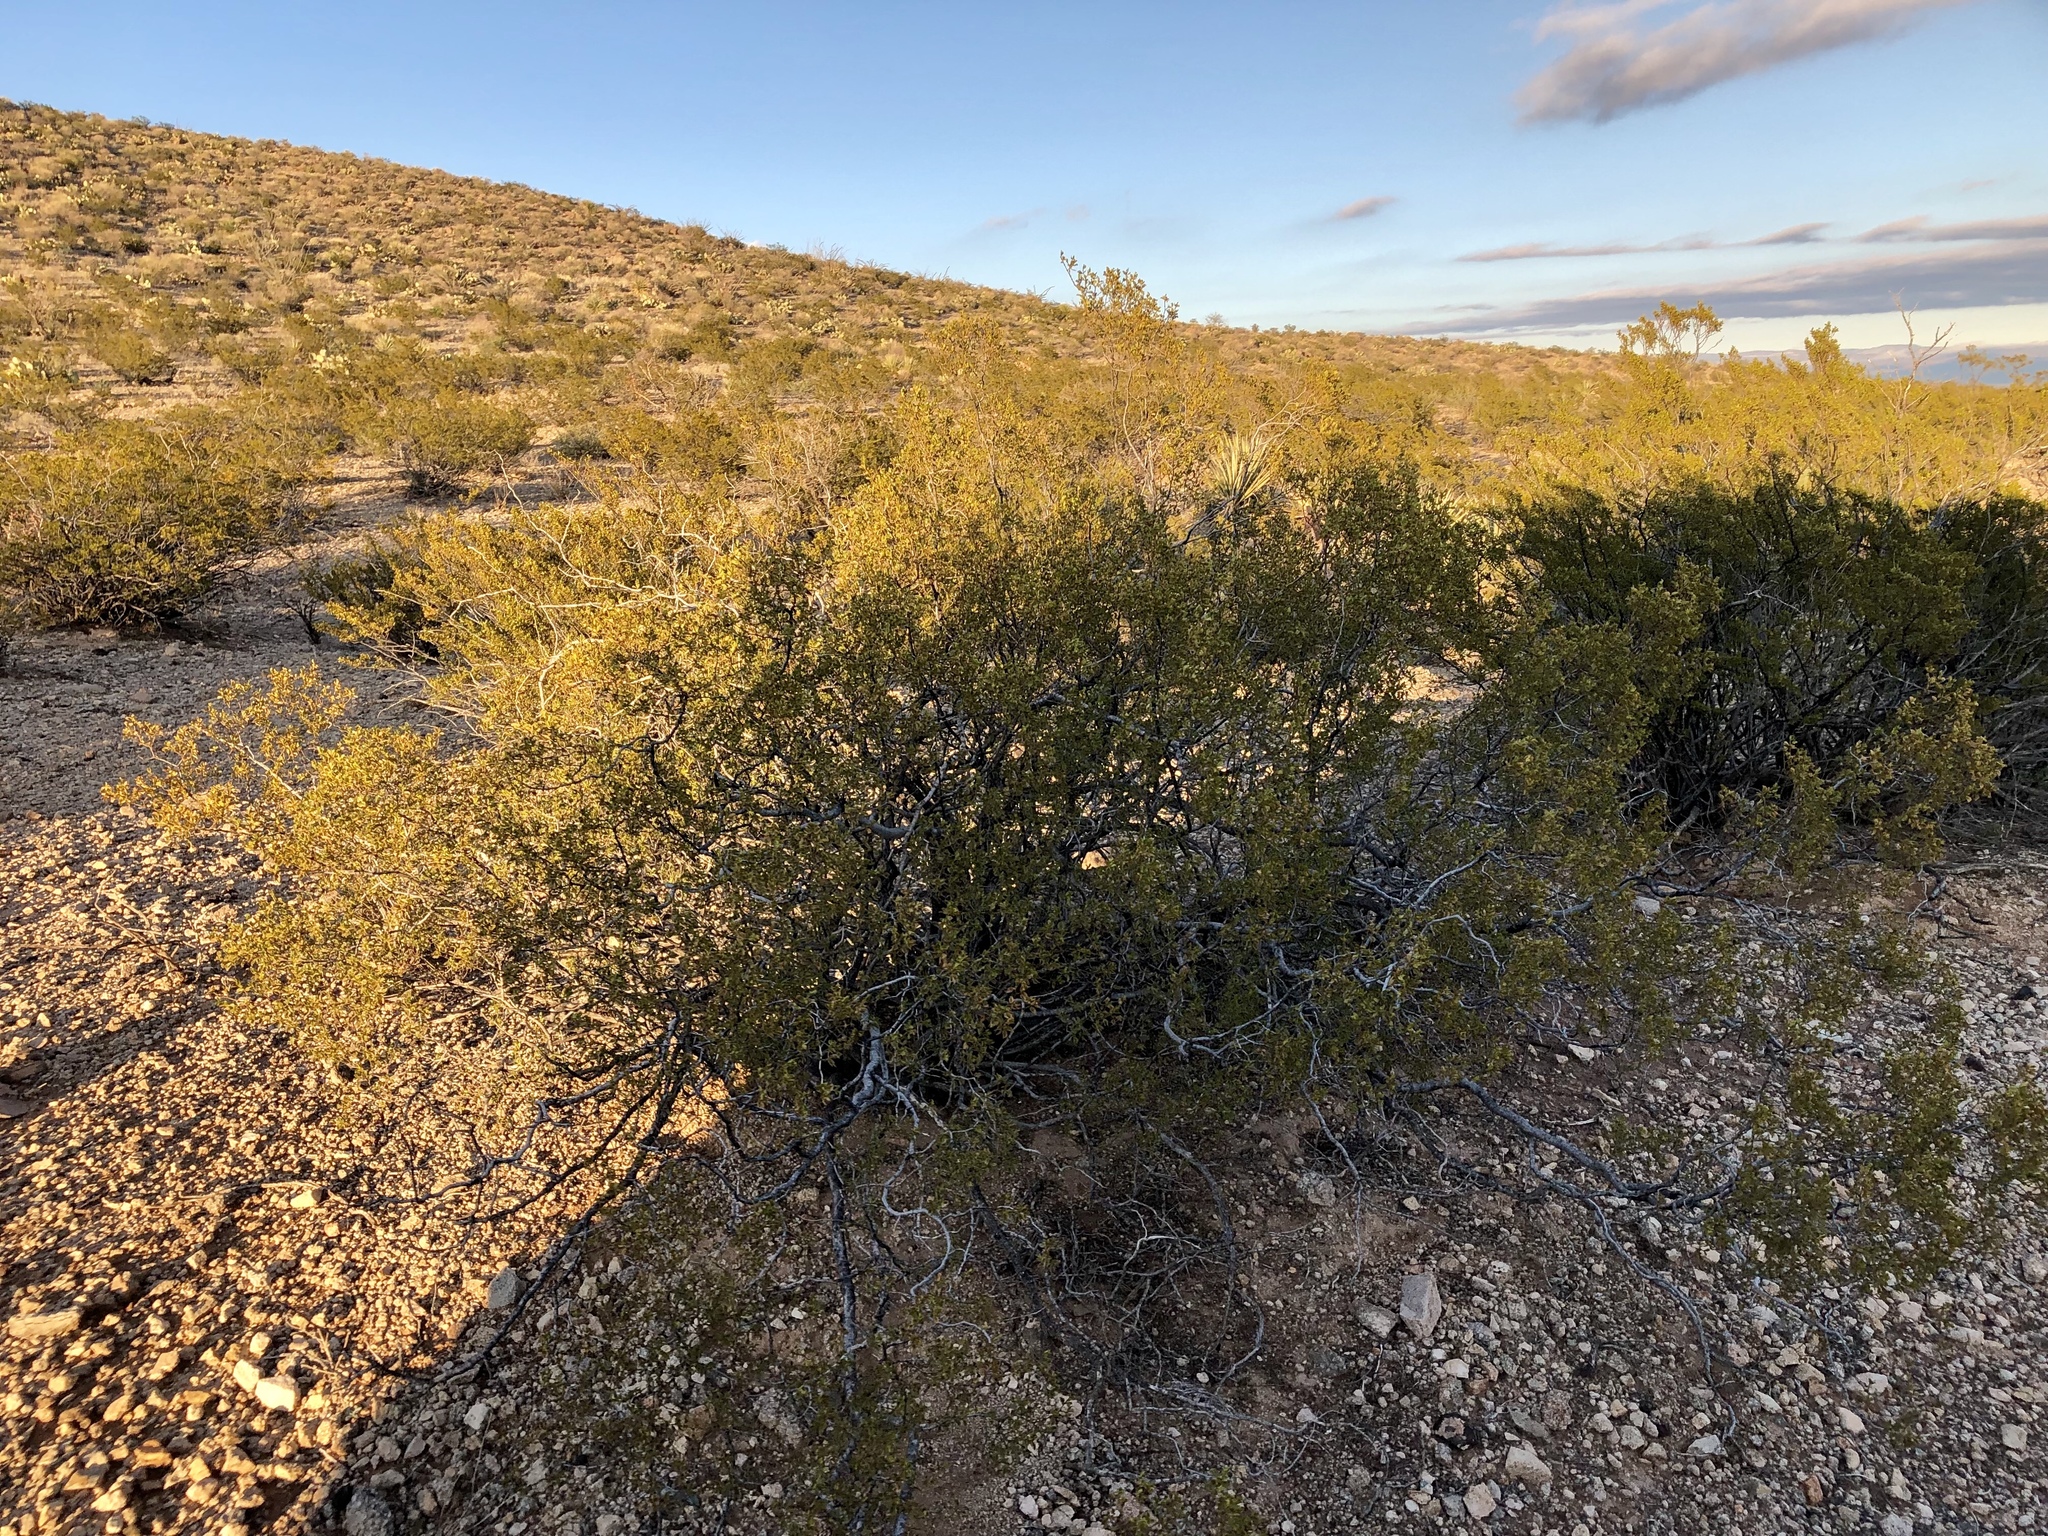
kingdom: Plantae
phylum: Tracheophyta
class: Magnoliopsida
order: Zygophyllales
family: Zygophyllaceae
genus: Larrea
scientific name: Larrea tridentata
